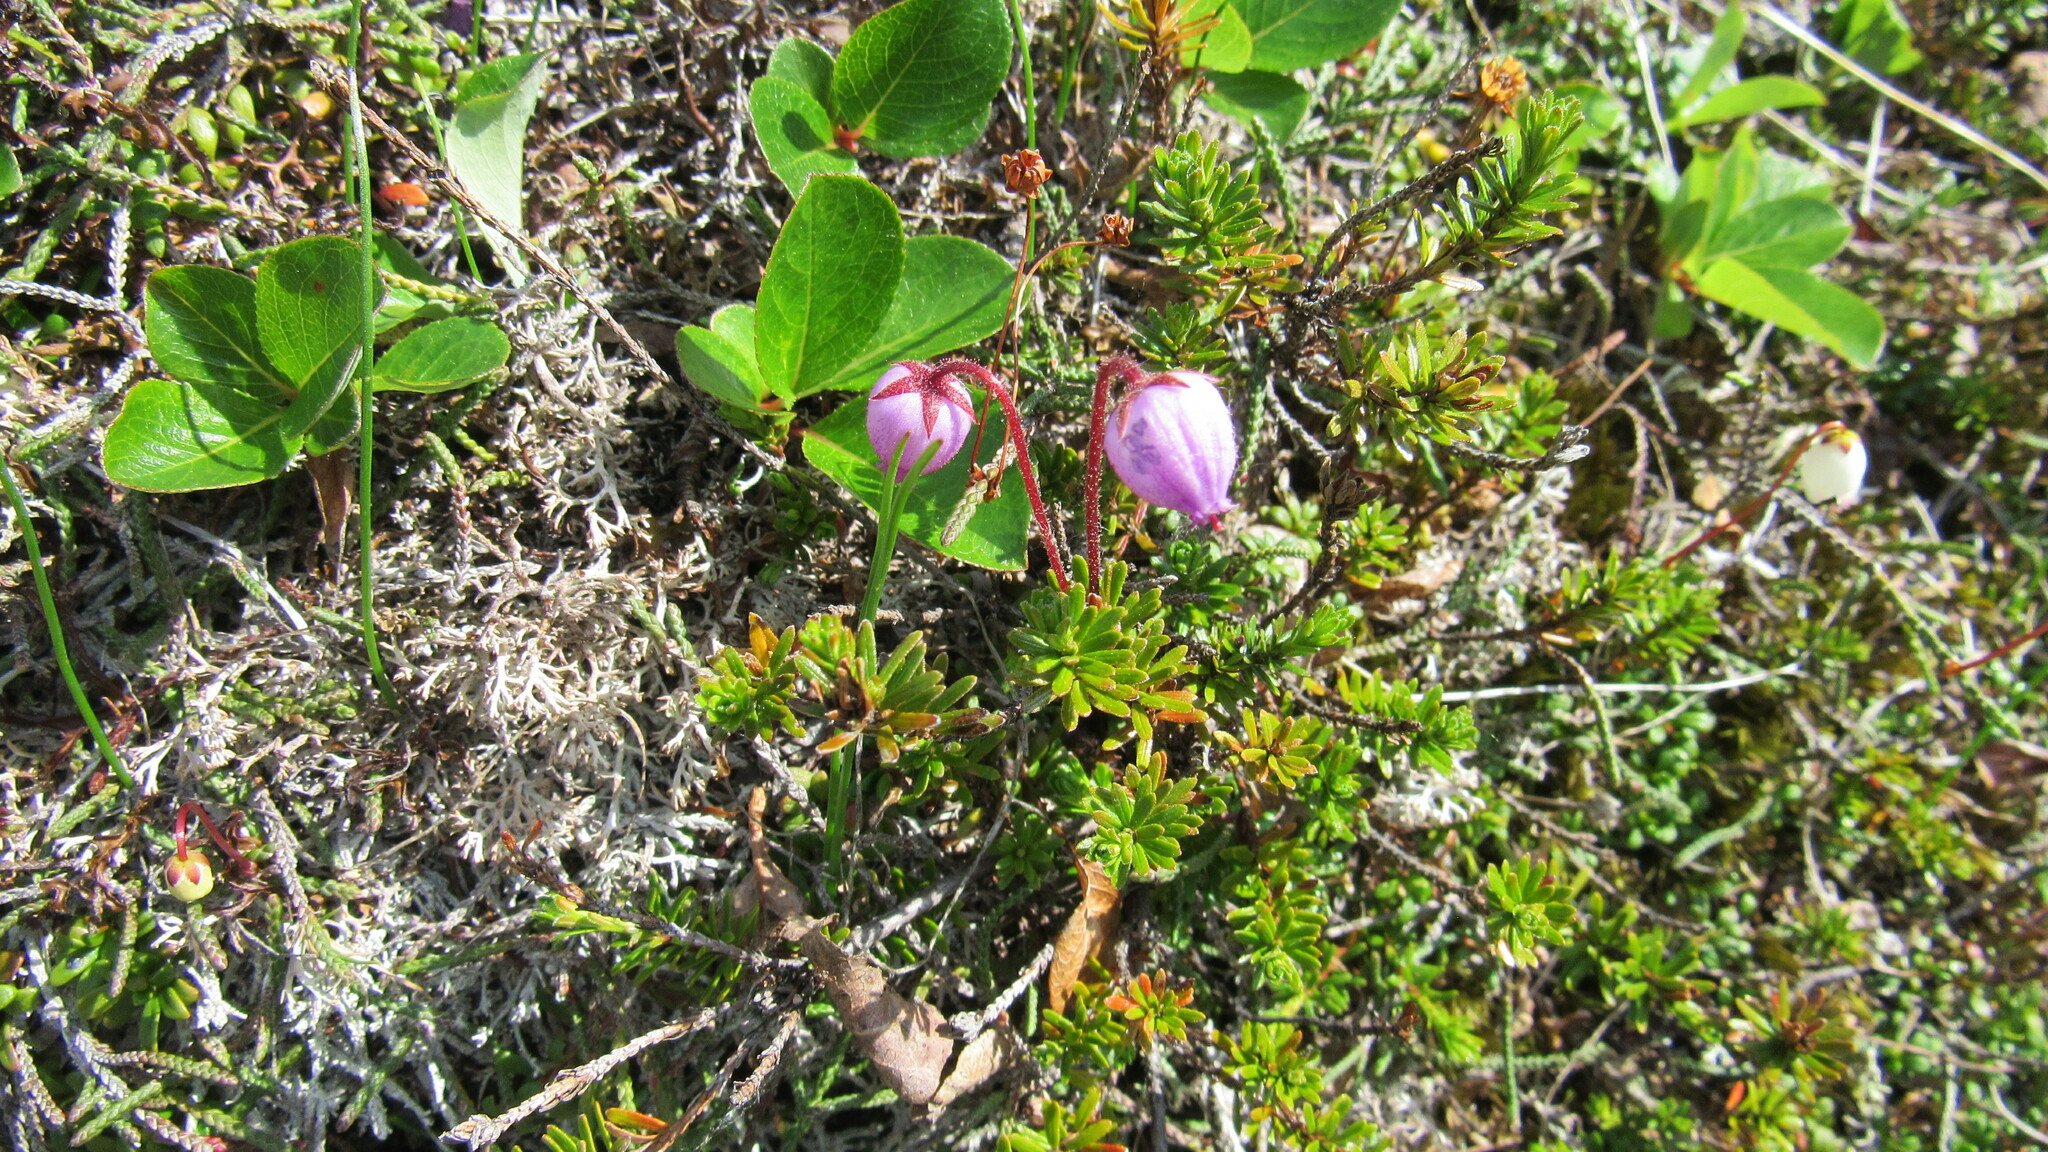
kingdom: Plantae
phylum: Tracheophyta
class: Magnoliopsida
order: Ericales
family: Ericaceae
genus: Phyllodoce
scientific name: Phyllodoce caerulea
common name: Blue heath
